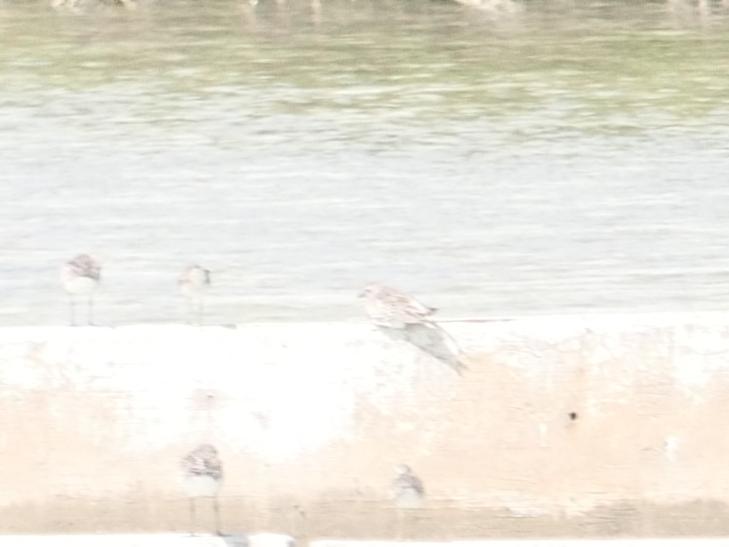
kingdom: Animalia
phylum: Chordata
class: Aves
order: Charadriiformes
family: Charadriidae
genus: Pluvialis
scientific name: Pluvialis squatarola
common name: Grey plover
